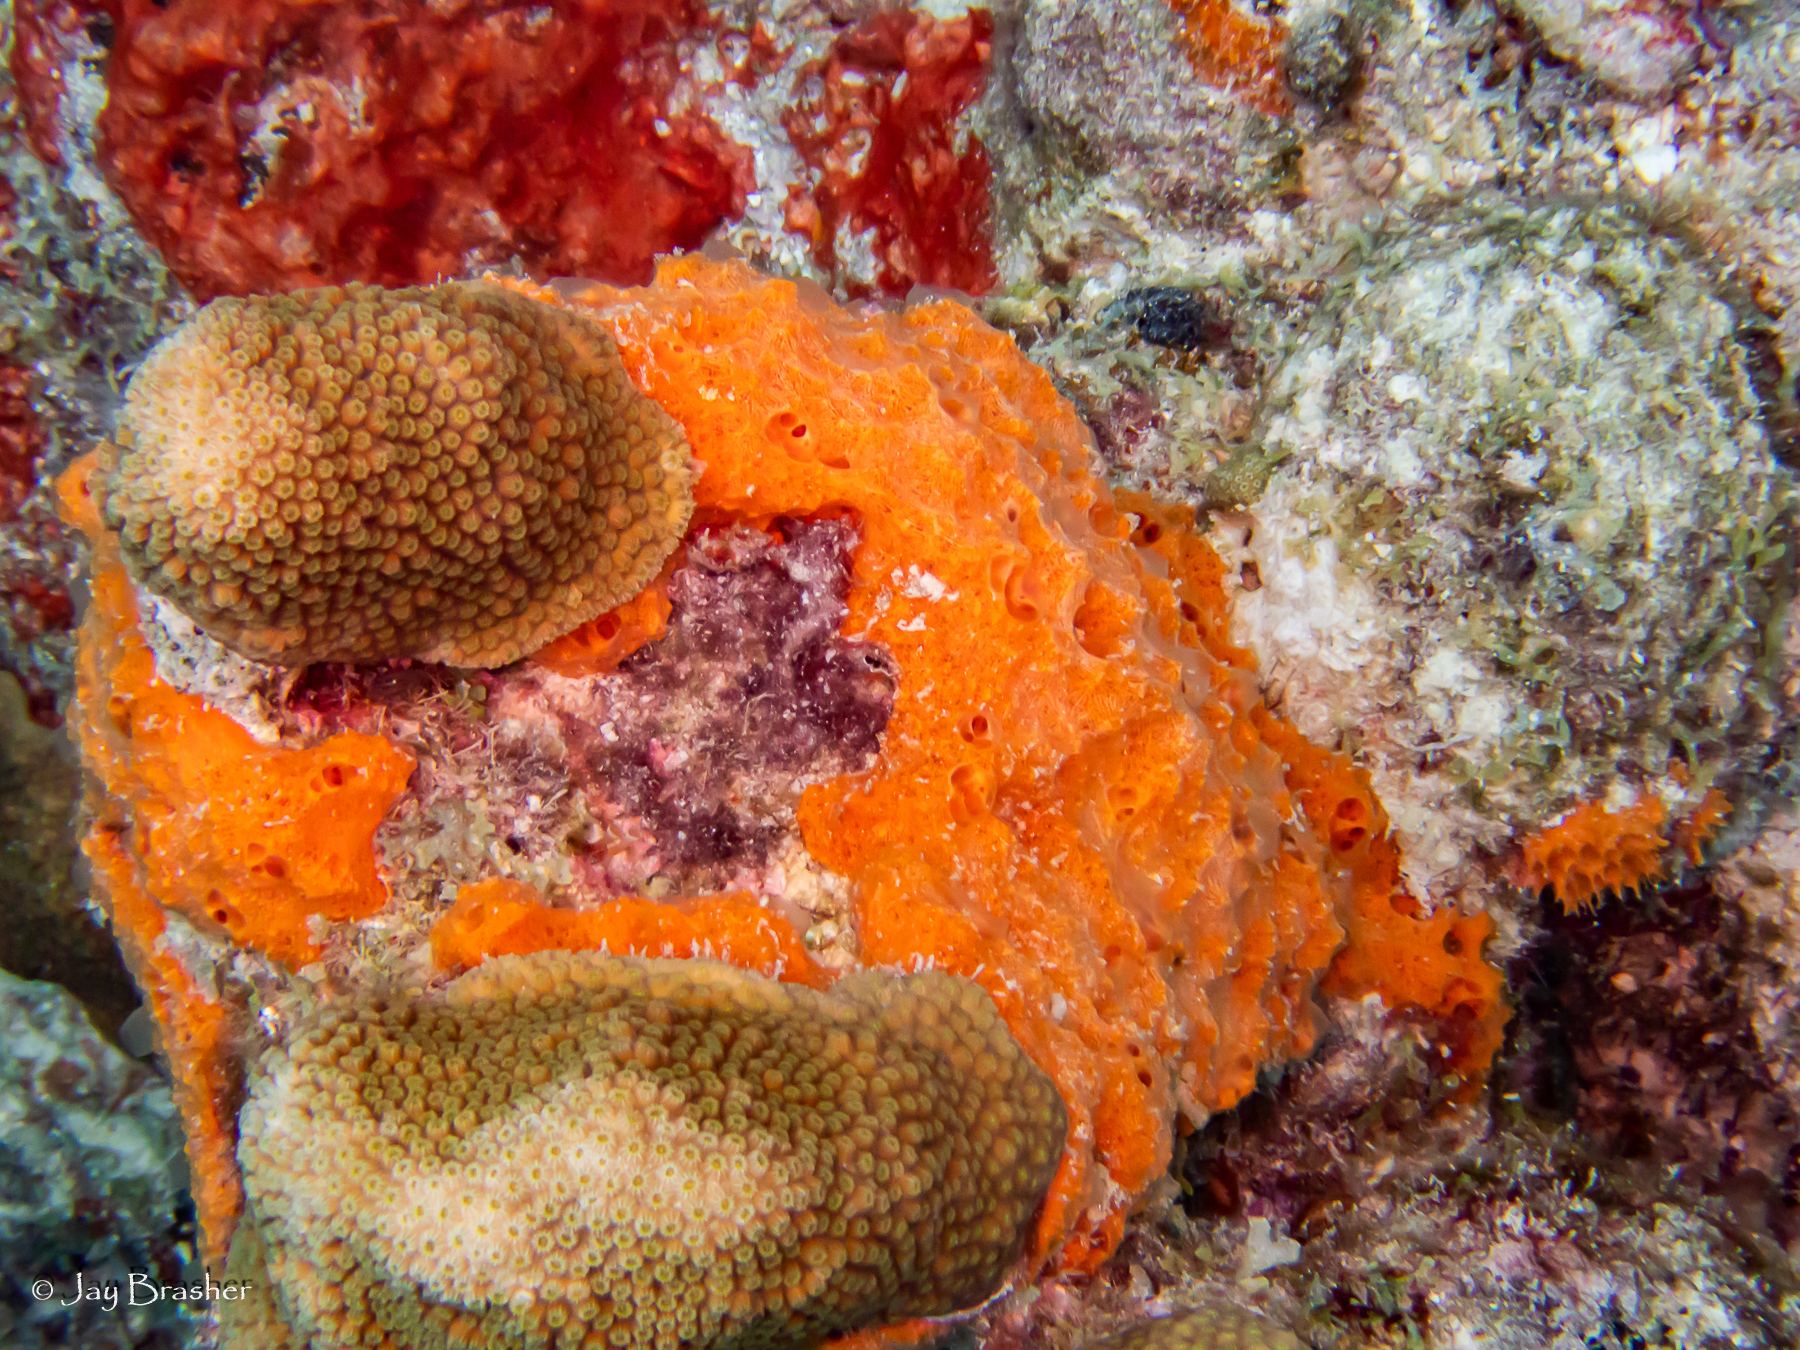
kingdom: Animalia
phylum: Porifera
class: Demospongiae
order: Scopalinida
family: Scopalinidae
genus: Scopalina
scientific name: Scopalina ruetzleri
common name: Orange lumpy encrusting sponge
